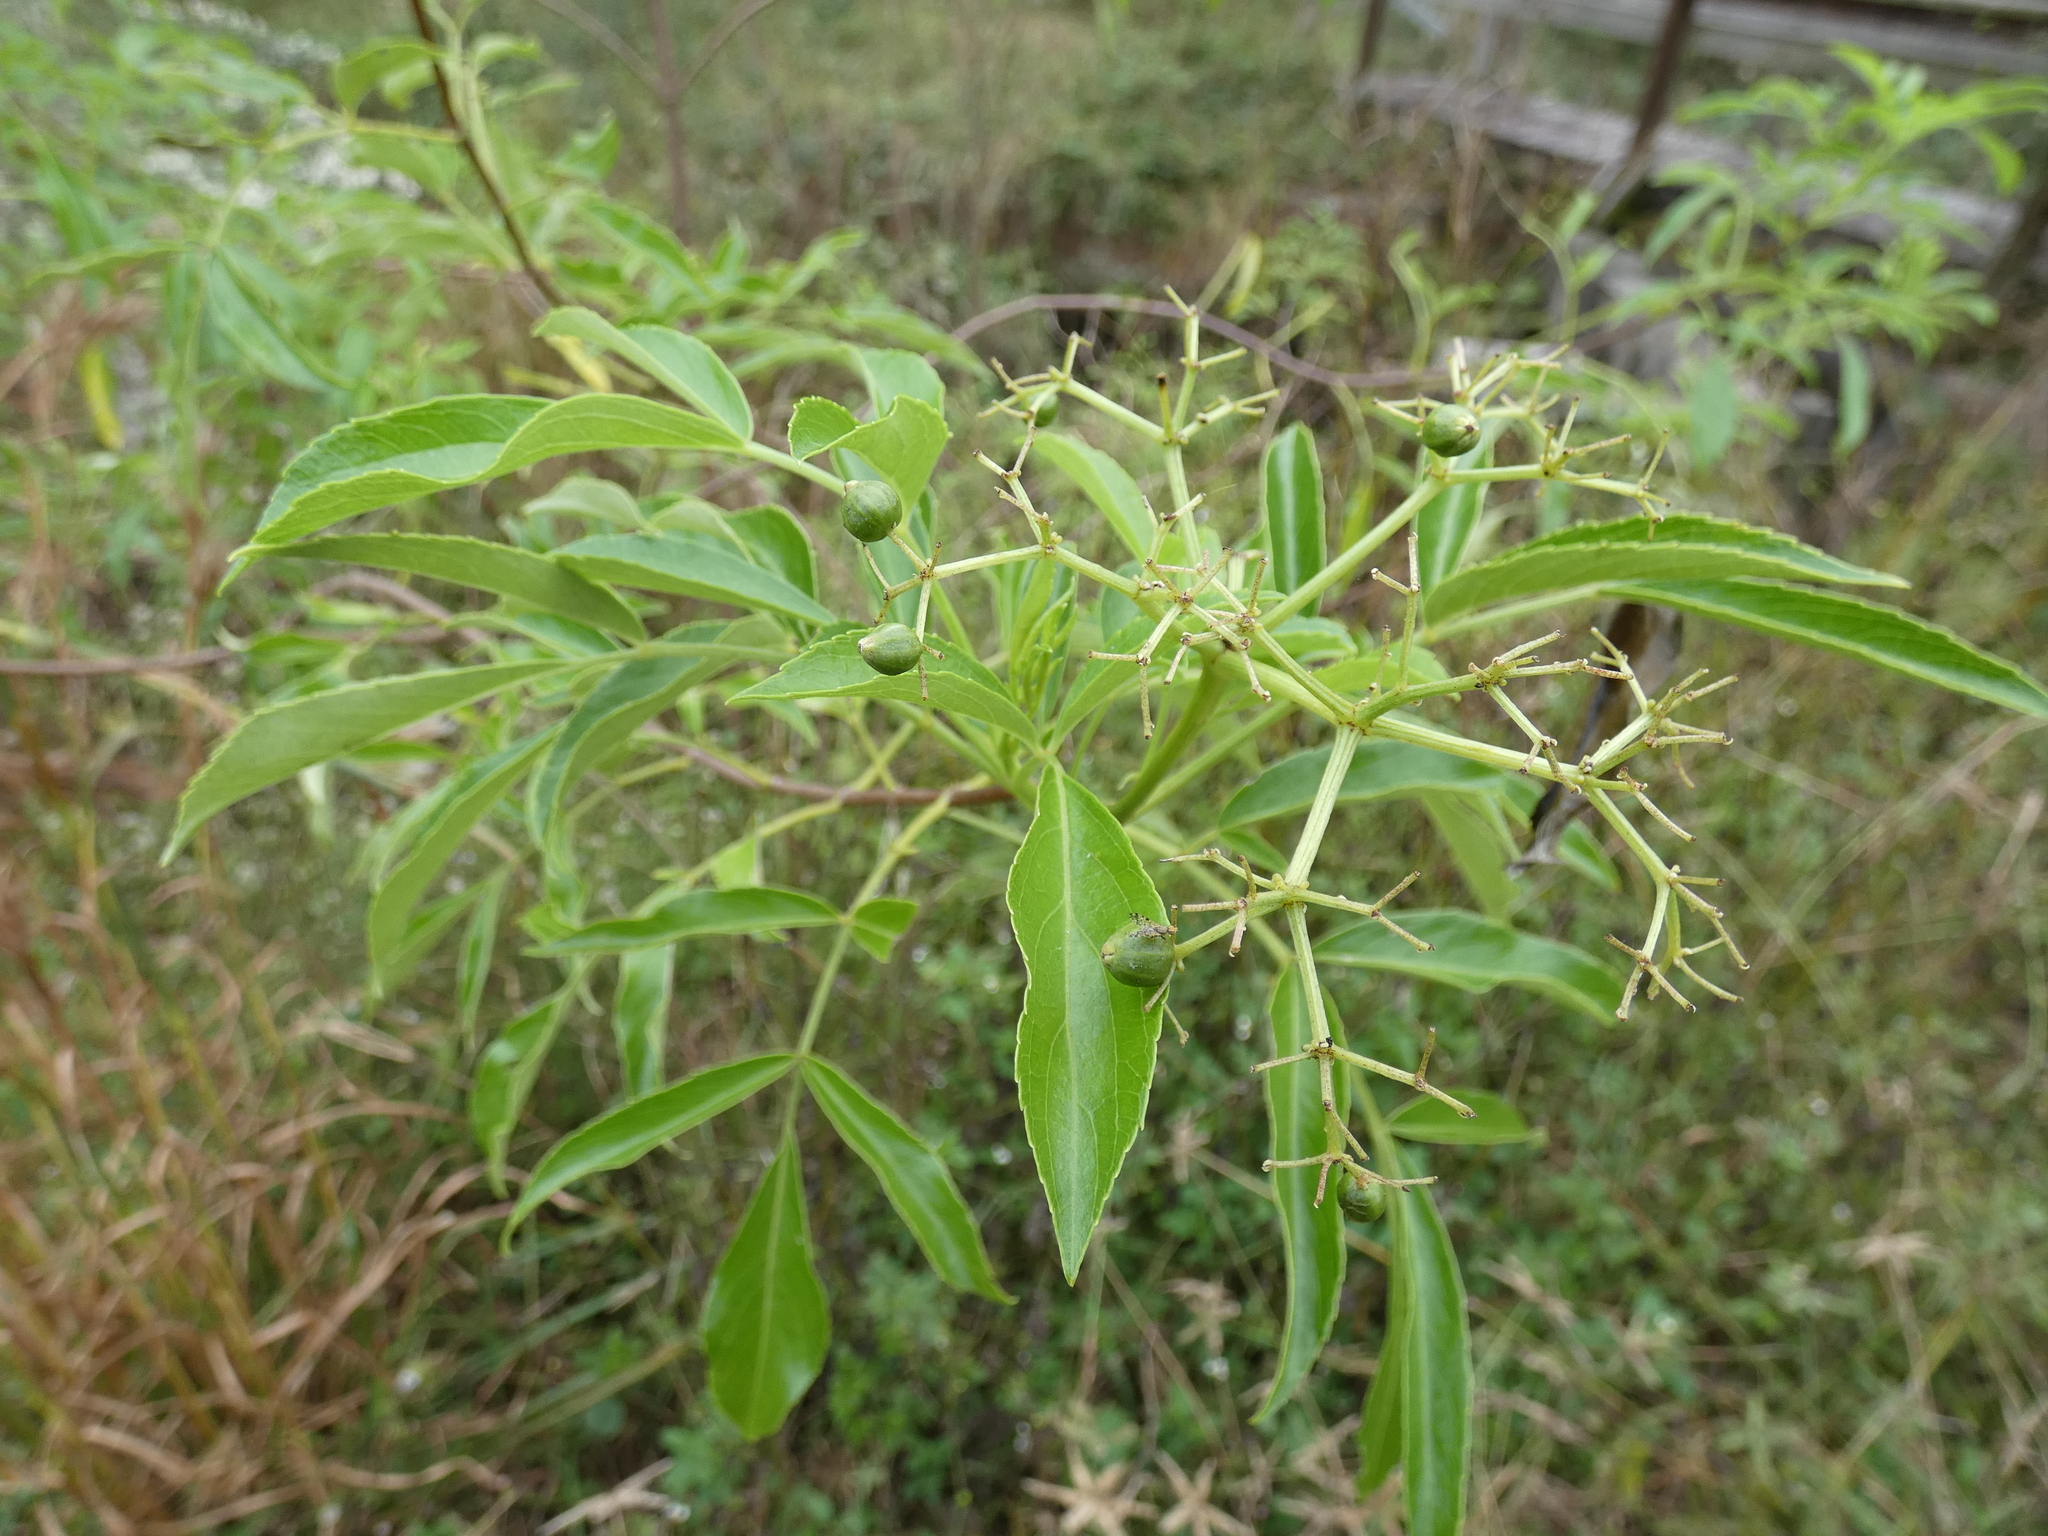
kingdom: Plantae
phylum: Tracheophyta
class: Magnoliopsida
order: Dipsacales
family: Viburnaceae
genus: Sambucus
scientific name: Sambucus canadensis
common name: American elder
